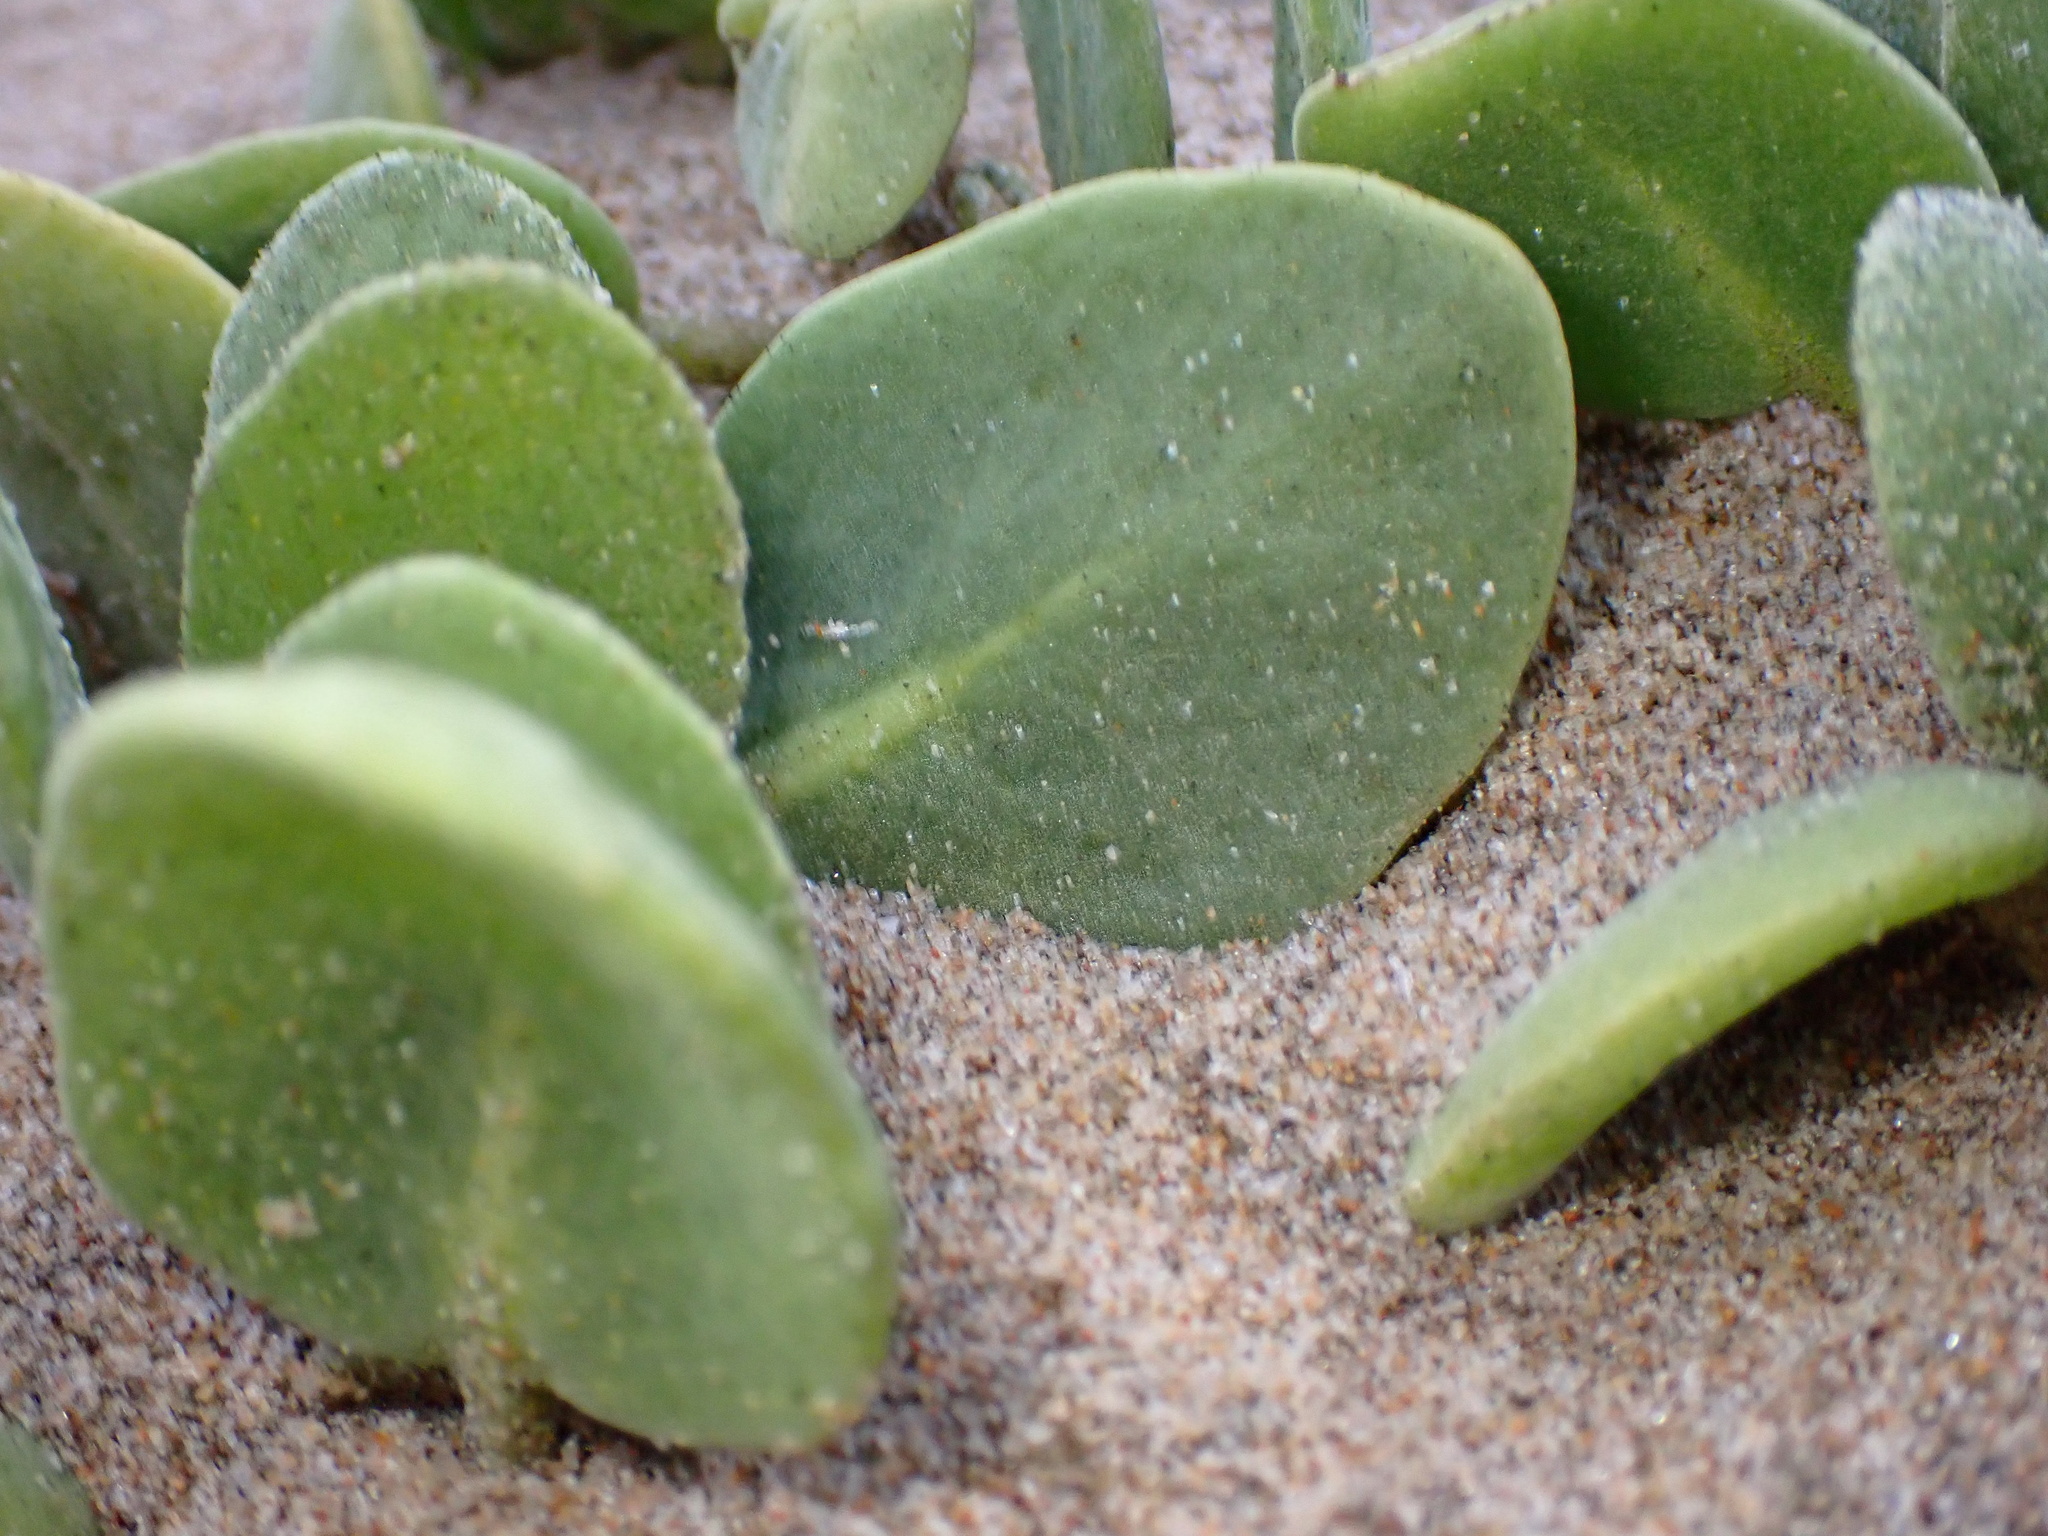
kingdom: Plantae
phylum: Tracheophyta
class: Magnoliopsida
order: Caryophyllales
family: Nyctaginaceae
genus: Abronia
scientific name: Abronia maritima
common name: Red sand-verbena
